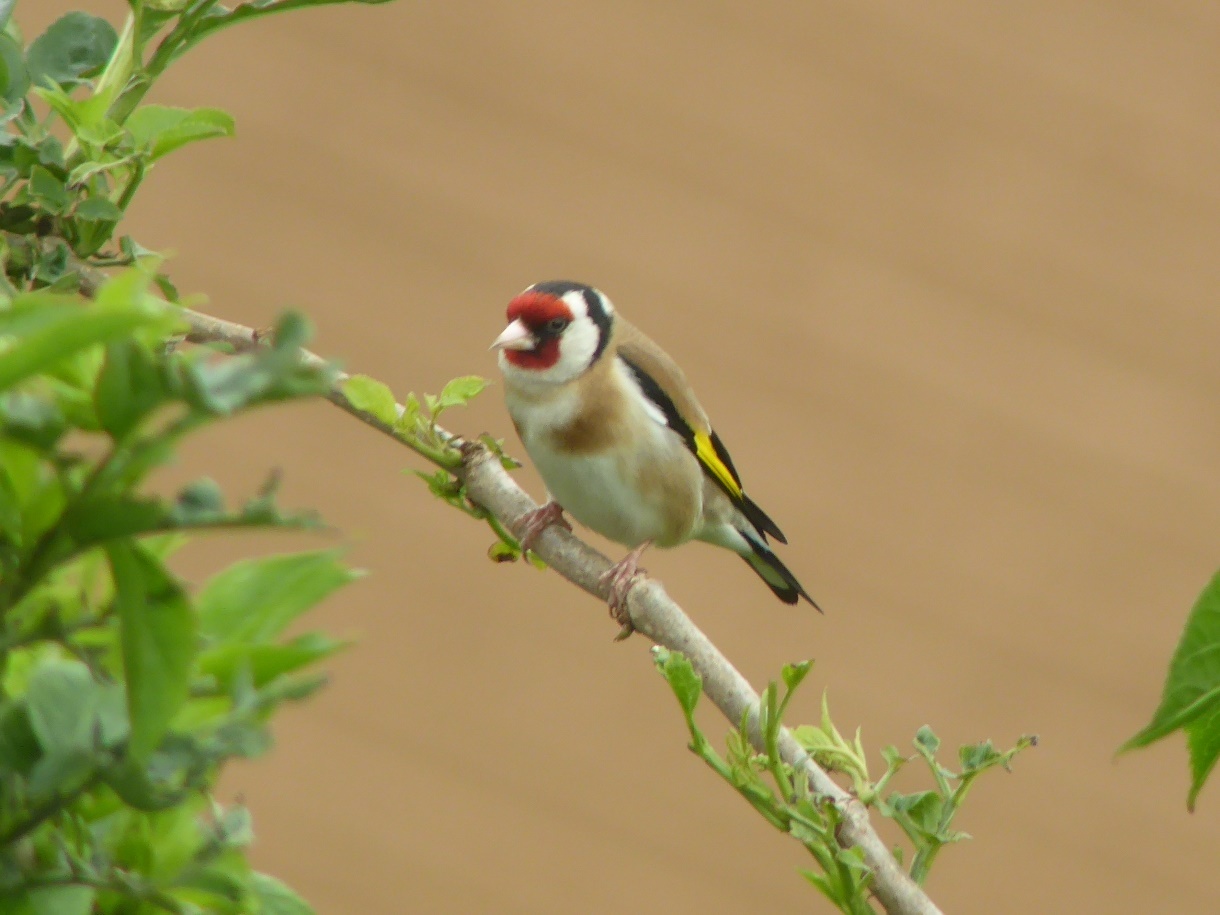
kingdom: Animalia
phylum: Chordata
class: Aves
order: Passeriformes
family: Fringillidae
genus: Carduelis
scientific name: Carduelis carduelis
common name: European goldfinch
